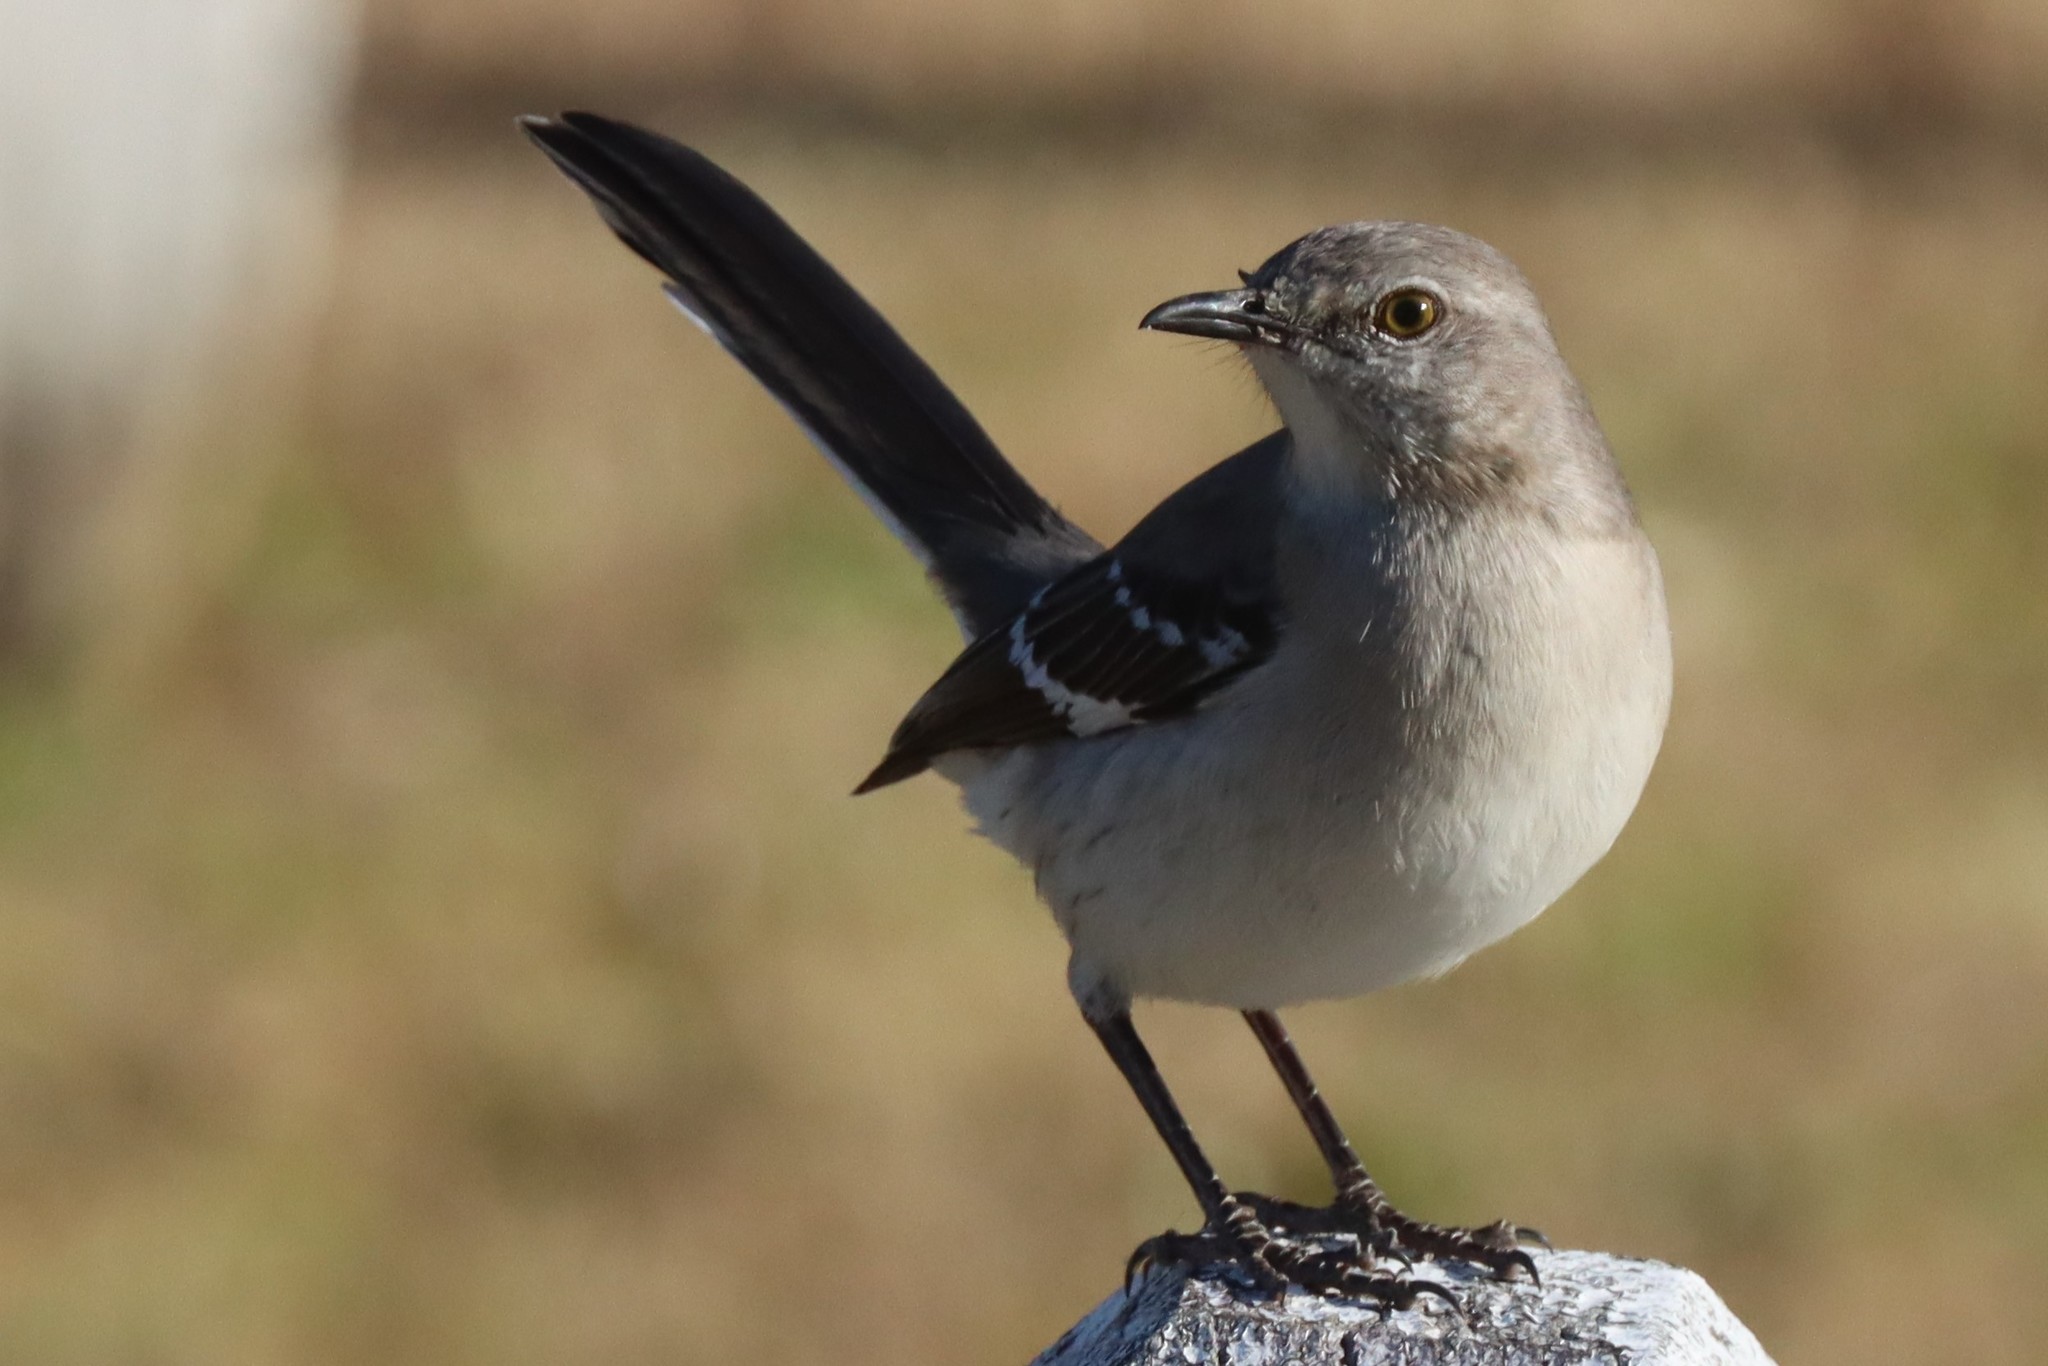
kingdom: Animalia
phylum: Chordata
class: Aves
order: Passeriformes
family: Mimidae
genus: Mimus
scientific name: Mimus polyglottos
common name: Northern mockingbird
